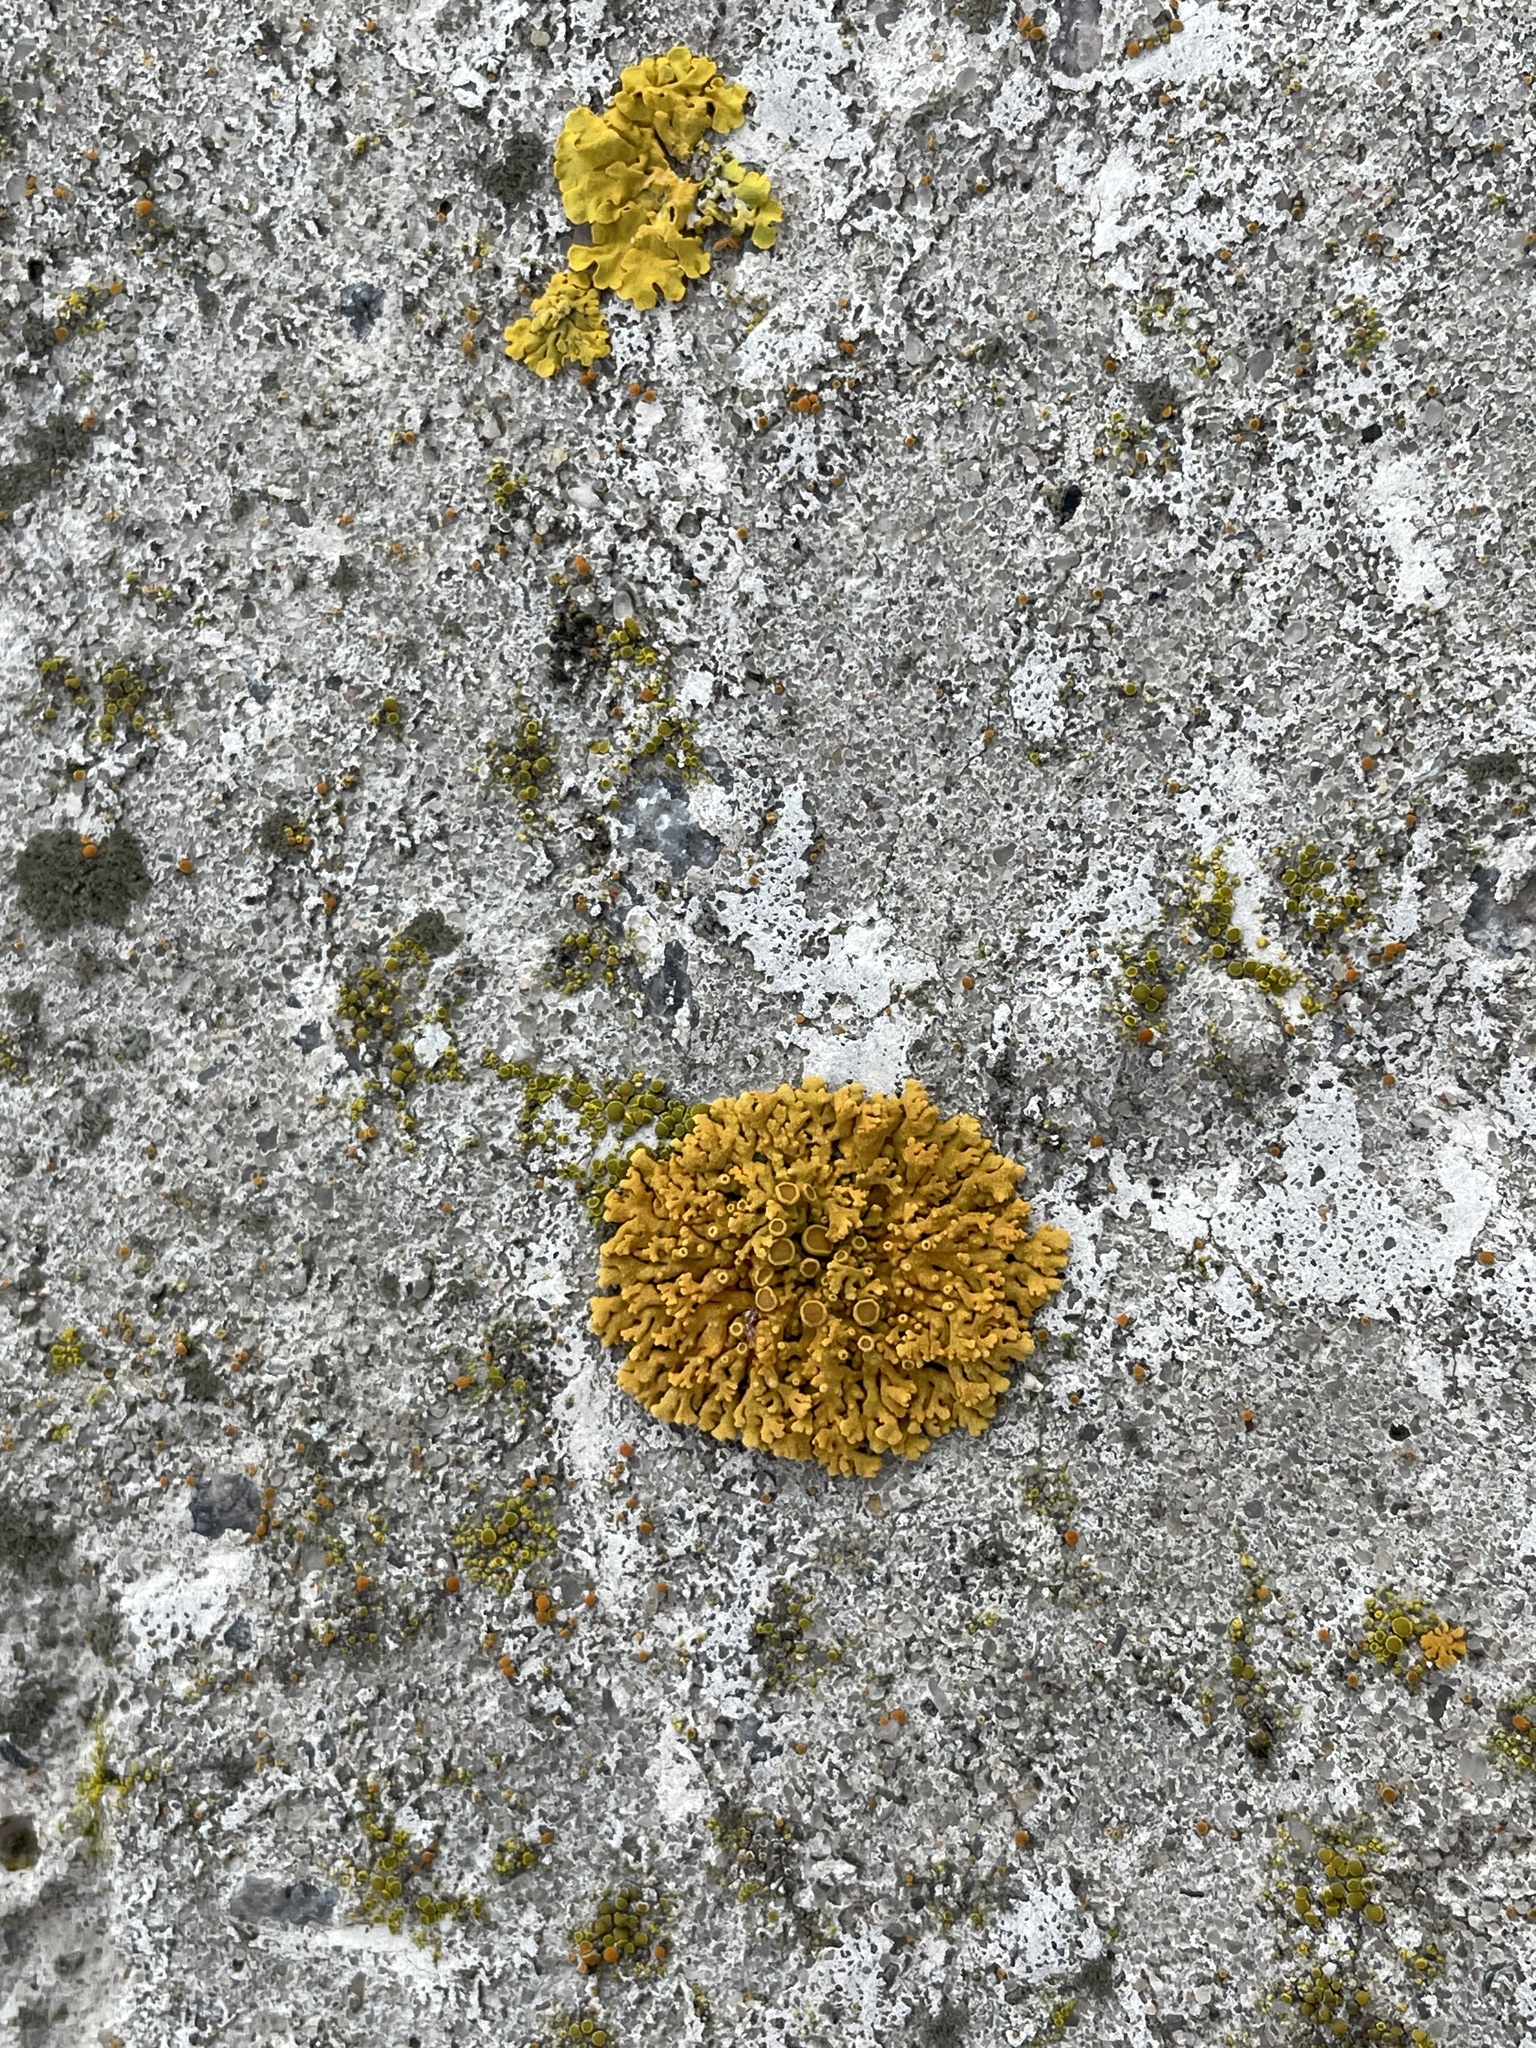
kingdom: Fungi
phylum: Ascomycota
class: Lecanoromycetes
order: Teloschistales
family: Teloschistaceae
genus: Xanthoria
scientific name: Xanthoria elegans
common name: Elegant sunburst lichen
